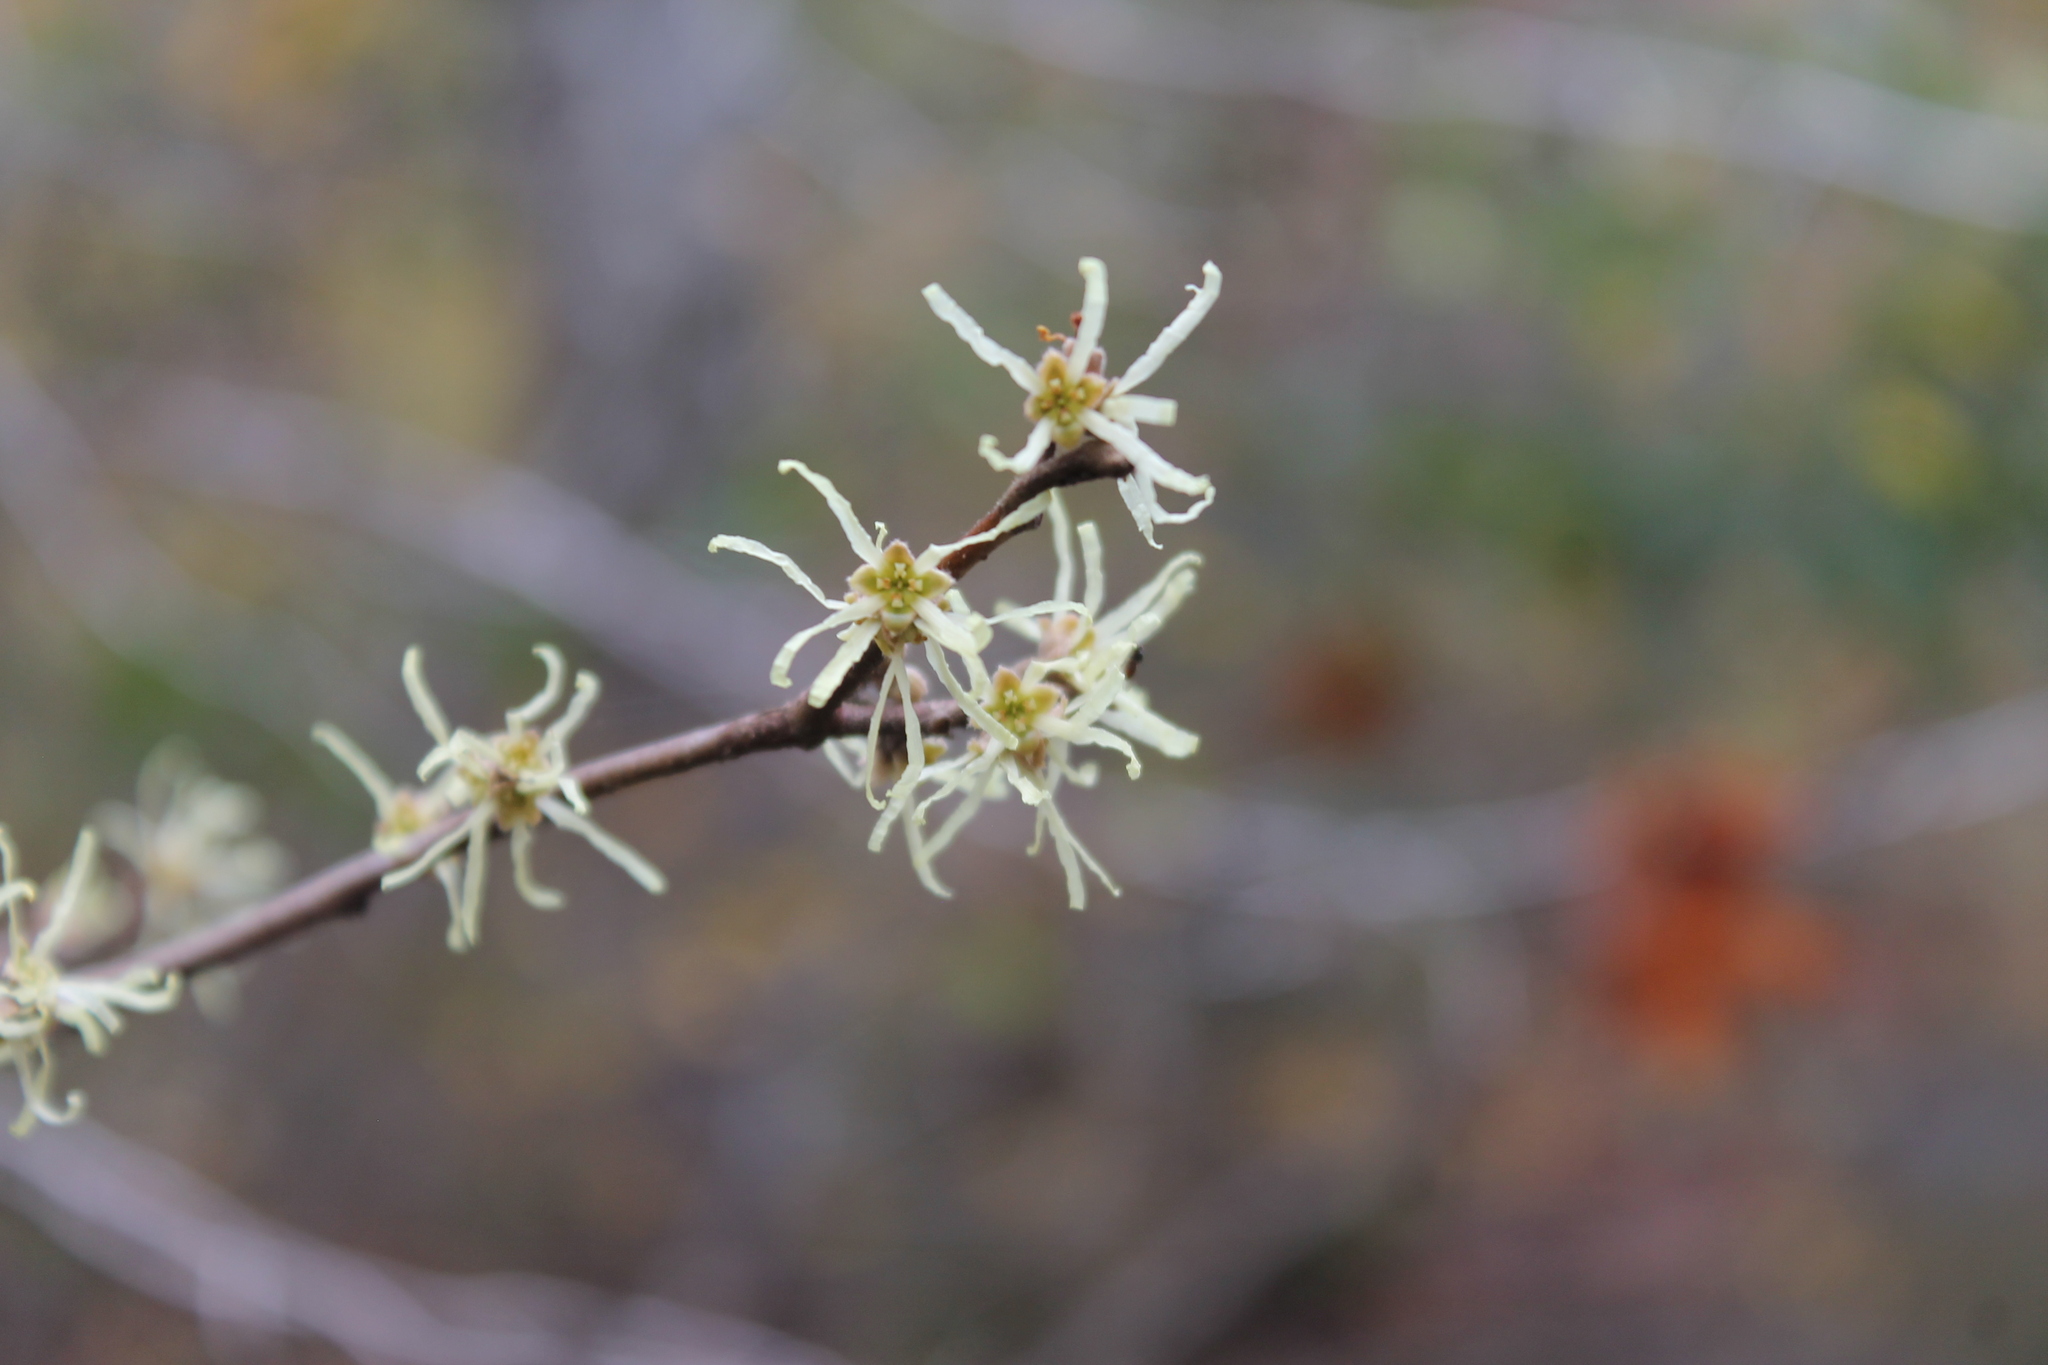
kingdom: Plantae
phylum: Tracheophyta
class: Magnoliopsida
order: Saxifragales
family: Hamamelidaceae
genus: Hamamelis
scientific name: Hamamelis virginiana
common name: Witch-hazel
